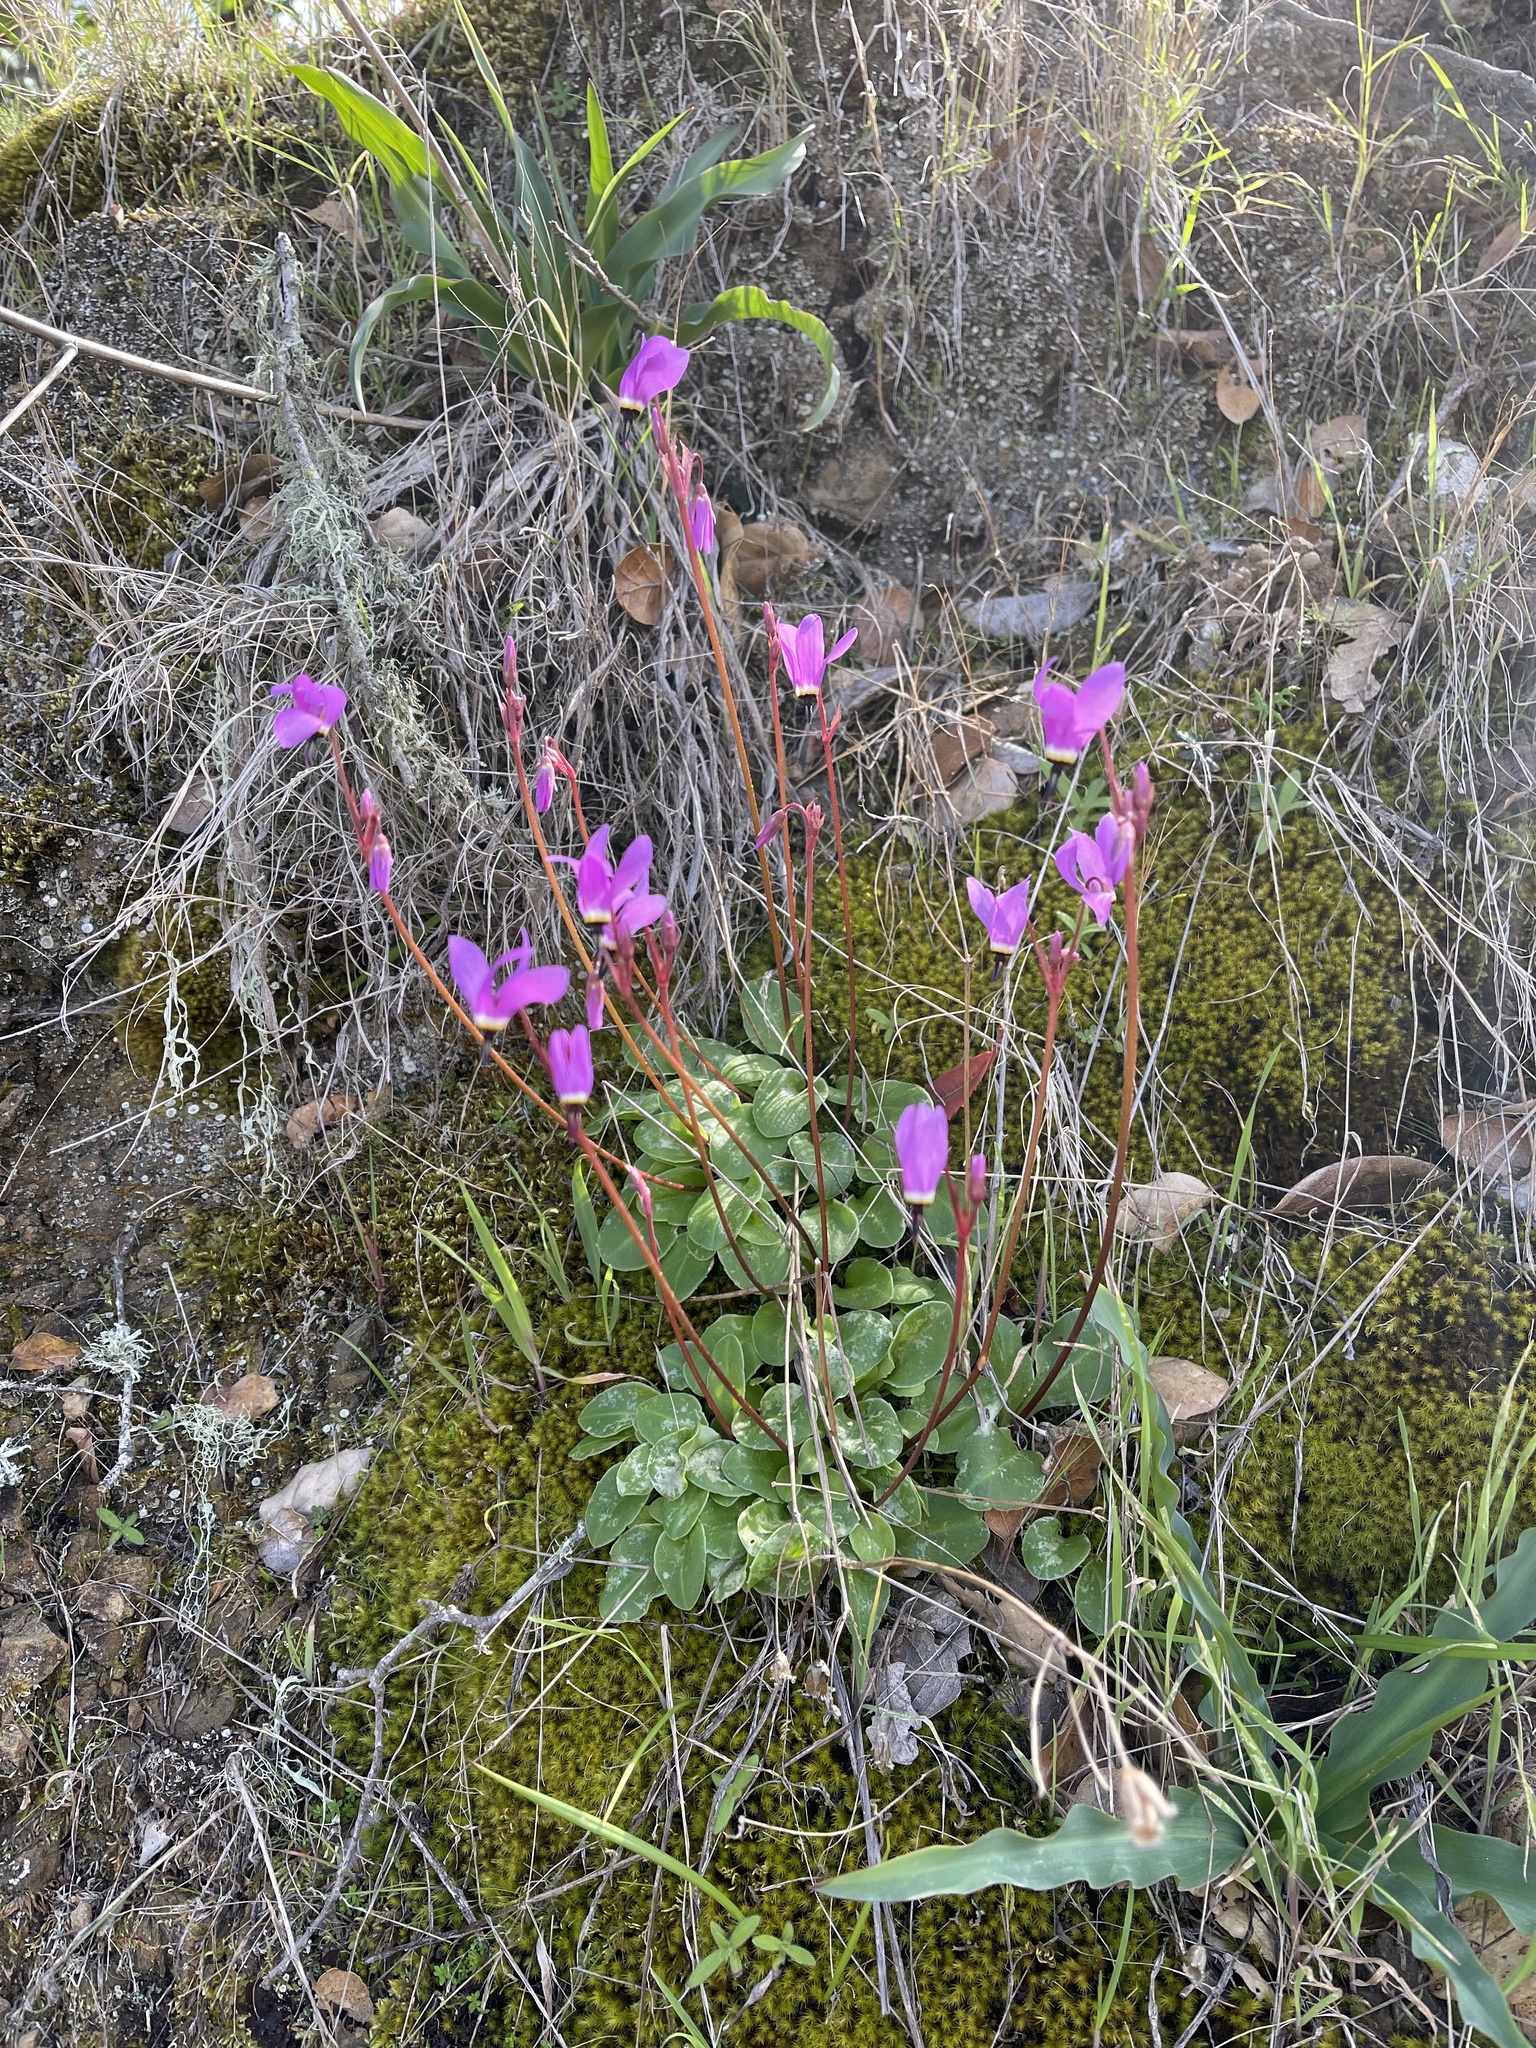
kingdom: Plantae
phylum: Tracheophyta
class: Magnoliopsida
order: Ericales
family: Primulaceae
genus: Dodecatheon
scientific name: Dodecatheon hendersonii
